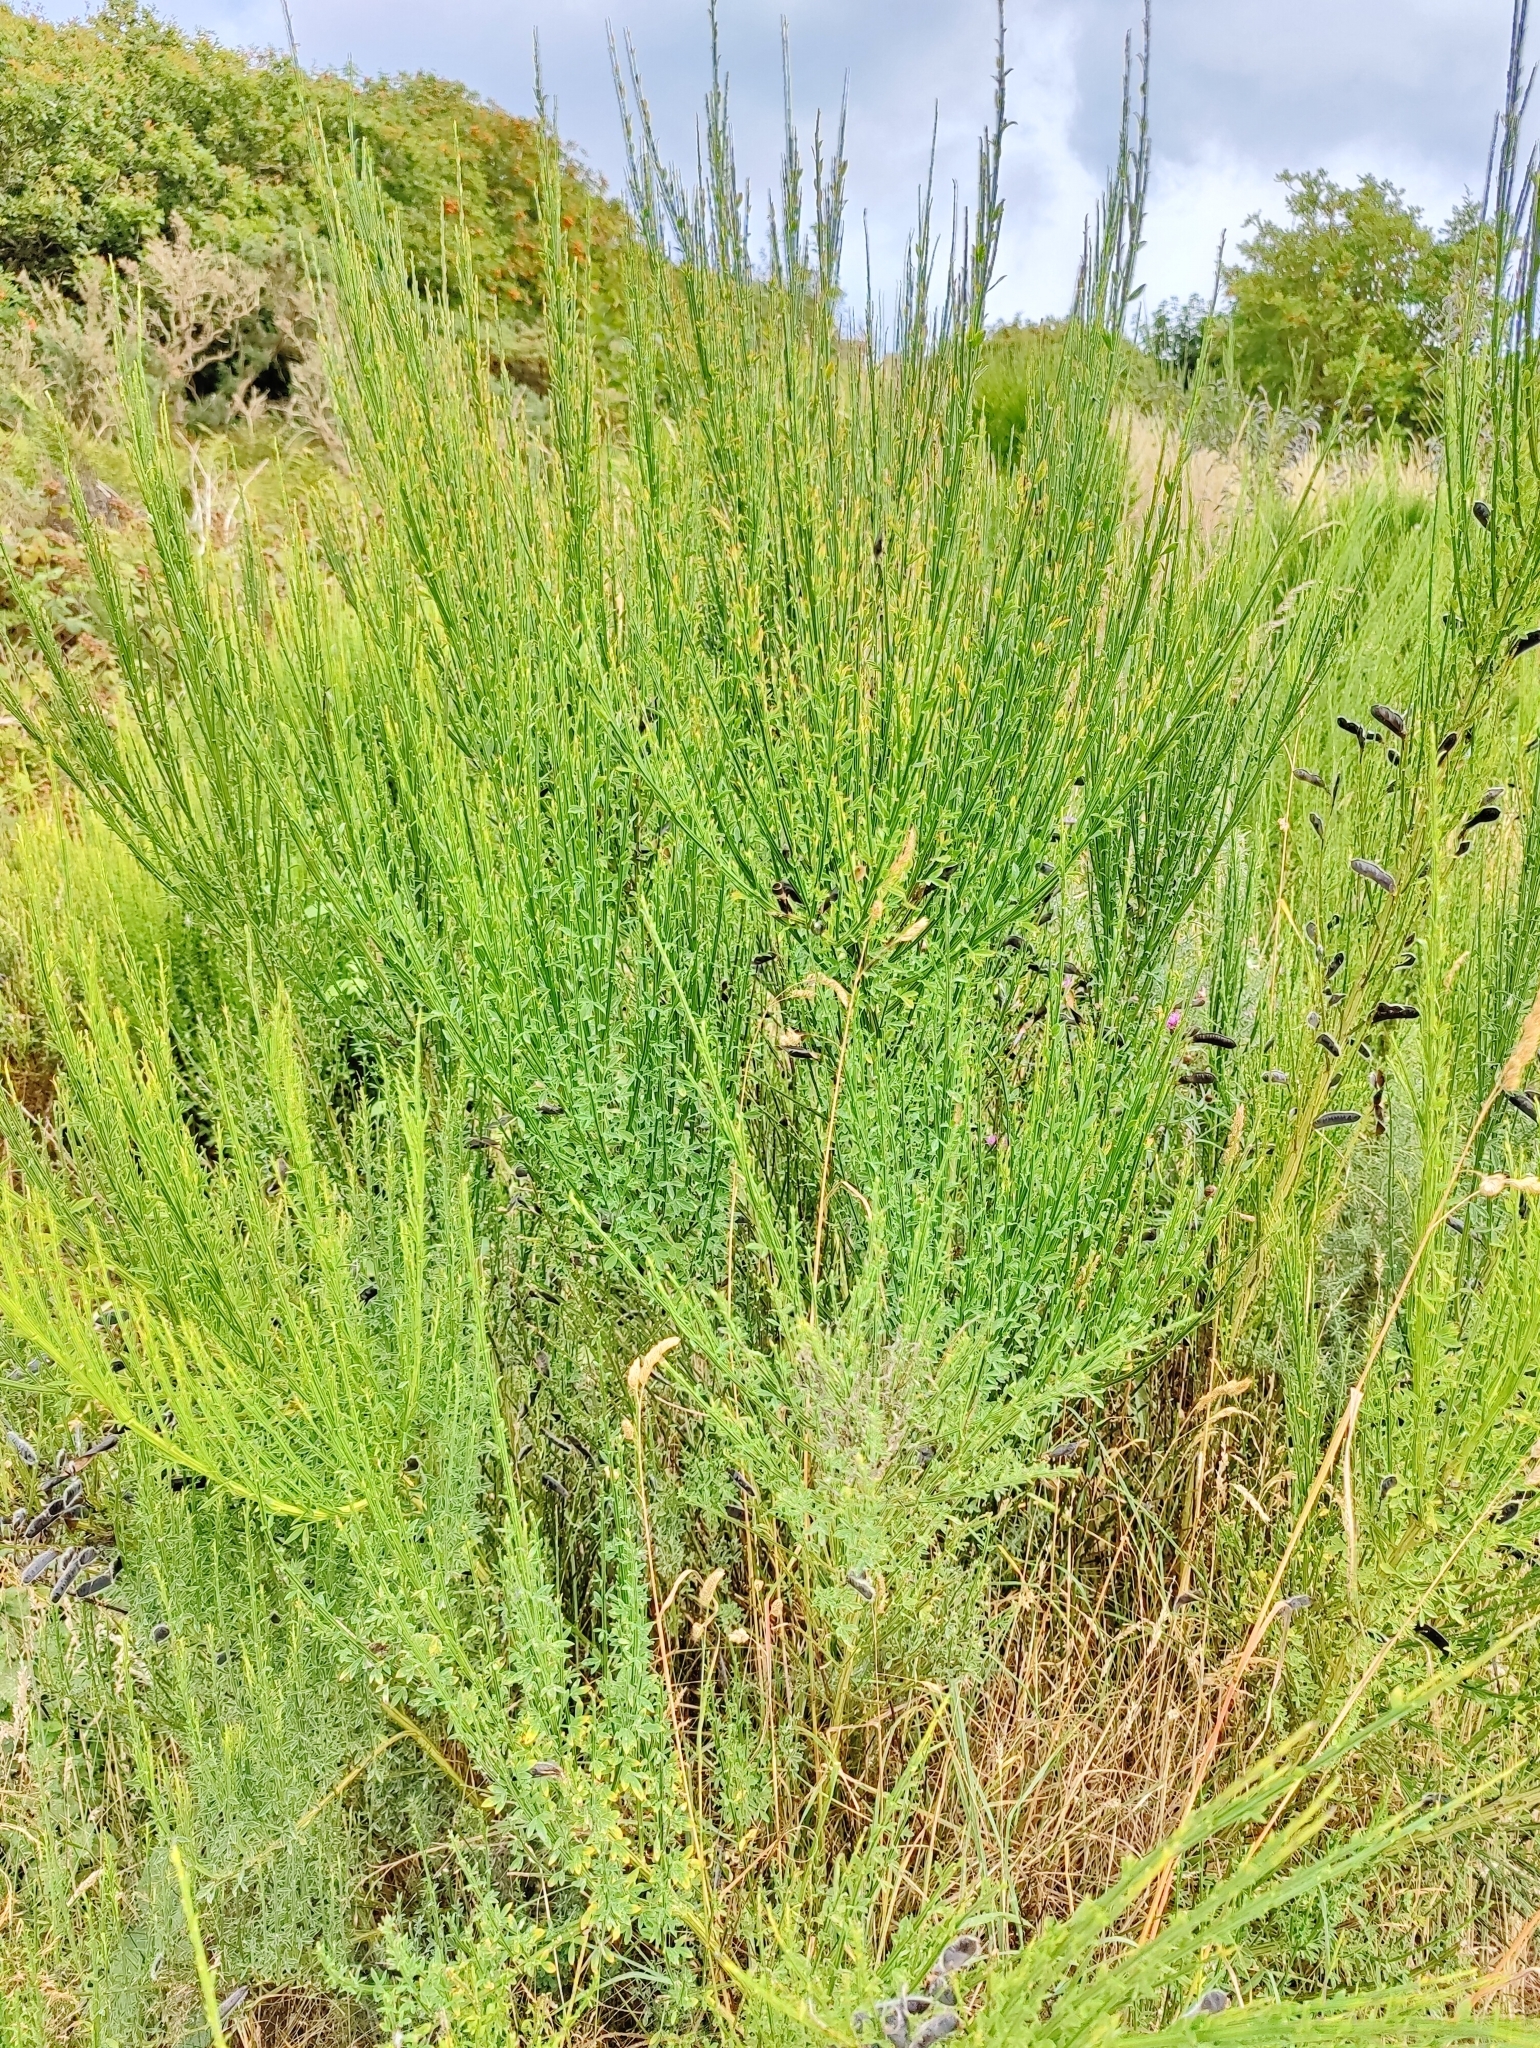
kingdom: Plantae
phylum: Tracheophyta
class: Magnoliopsida
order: Fabales
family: Fabaceae
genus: Cytisus
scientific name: Cytisus scoparius
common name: Scotch broom
